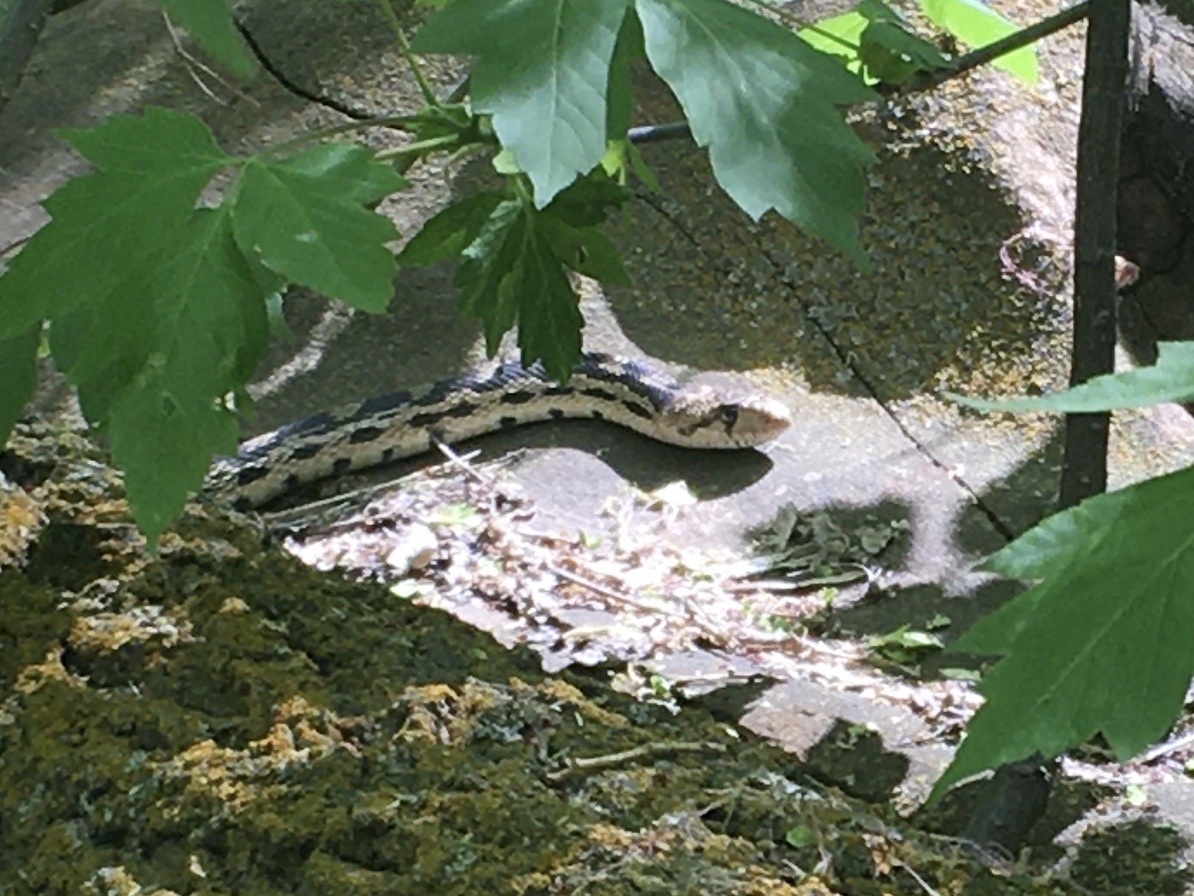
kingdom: Animalia
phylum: Chordata
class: Squamata
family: Colubridae
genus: Pituophis
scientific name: Pituophis catenifer
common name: Gopher snake
